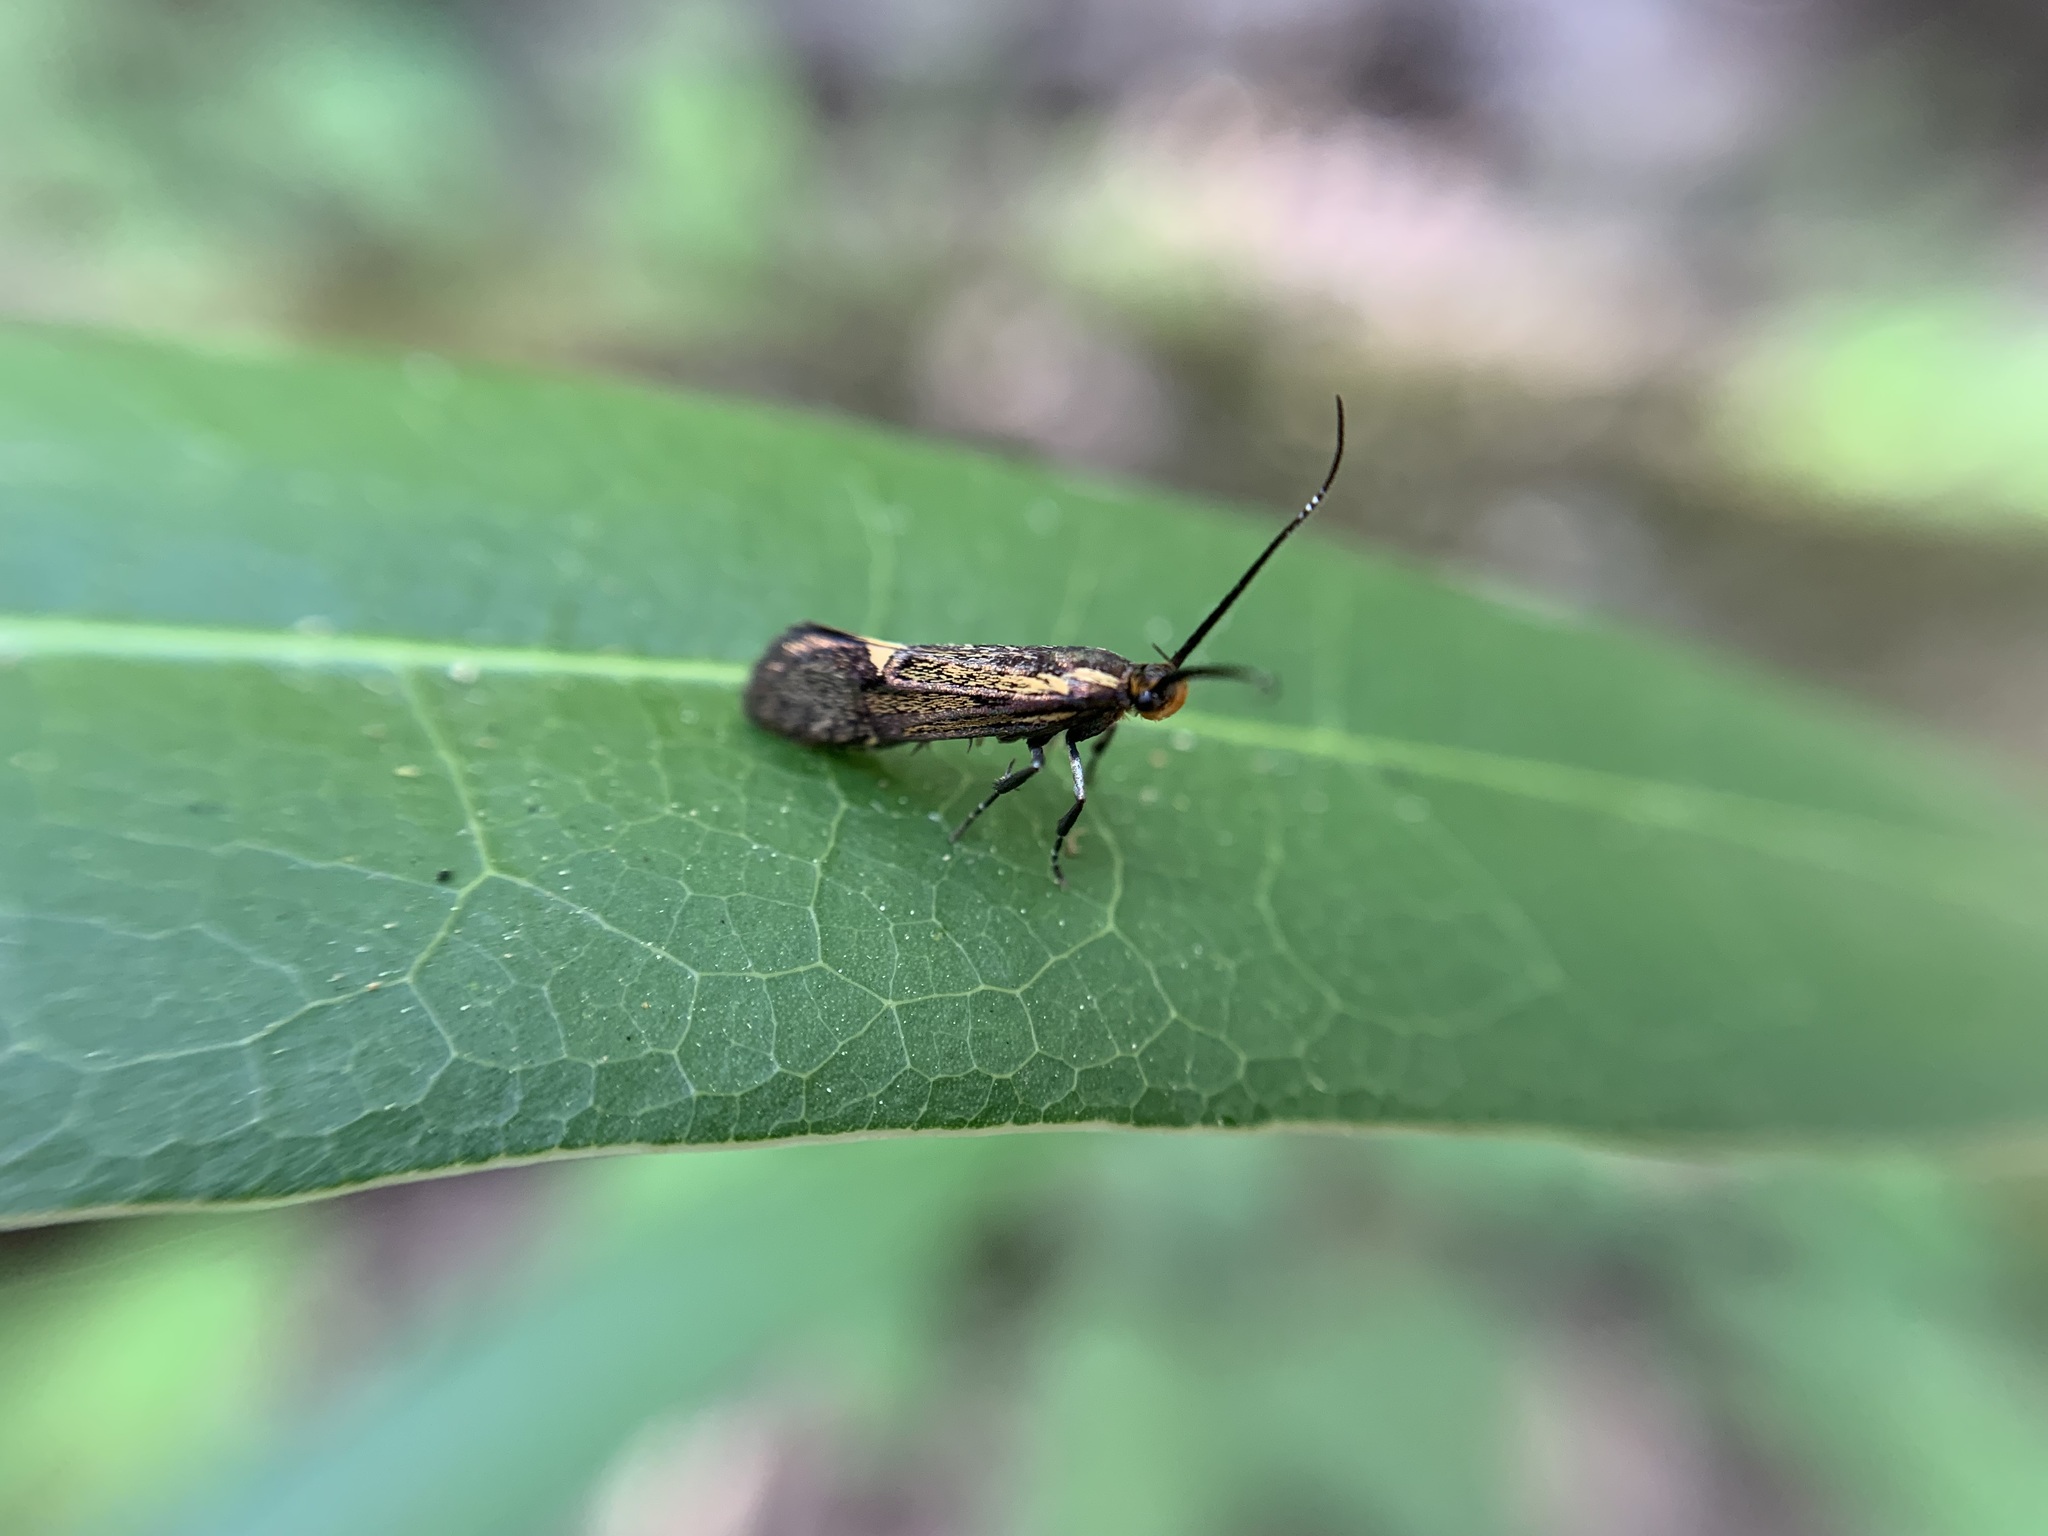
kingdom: Animalia
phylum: Arthropoda
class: Insecta
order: Lepidoptera
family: Oecophoridae
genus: Dafa
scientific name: Dafa Esperia sulphurella
